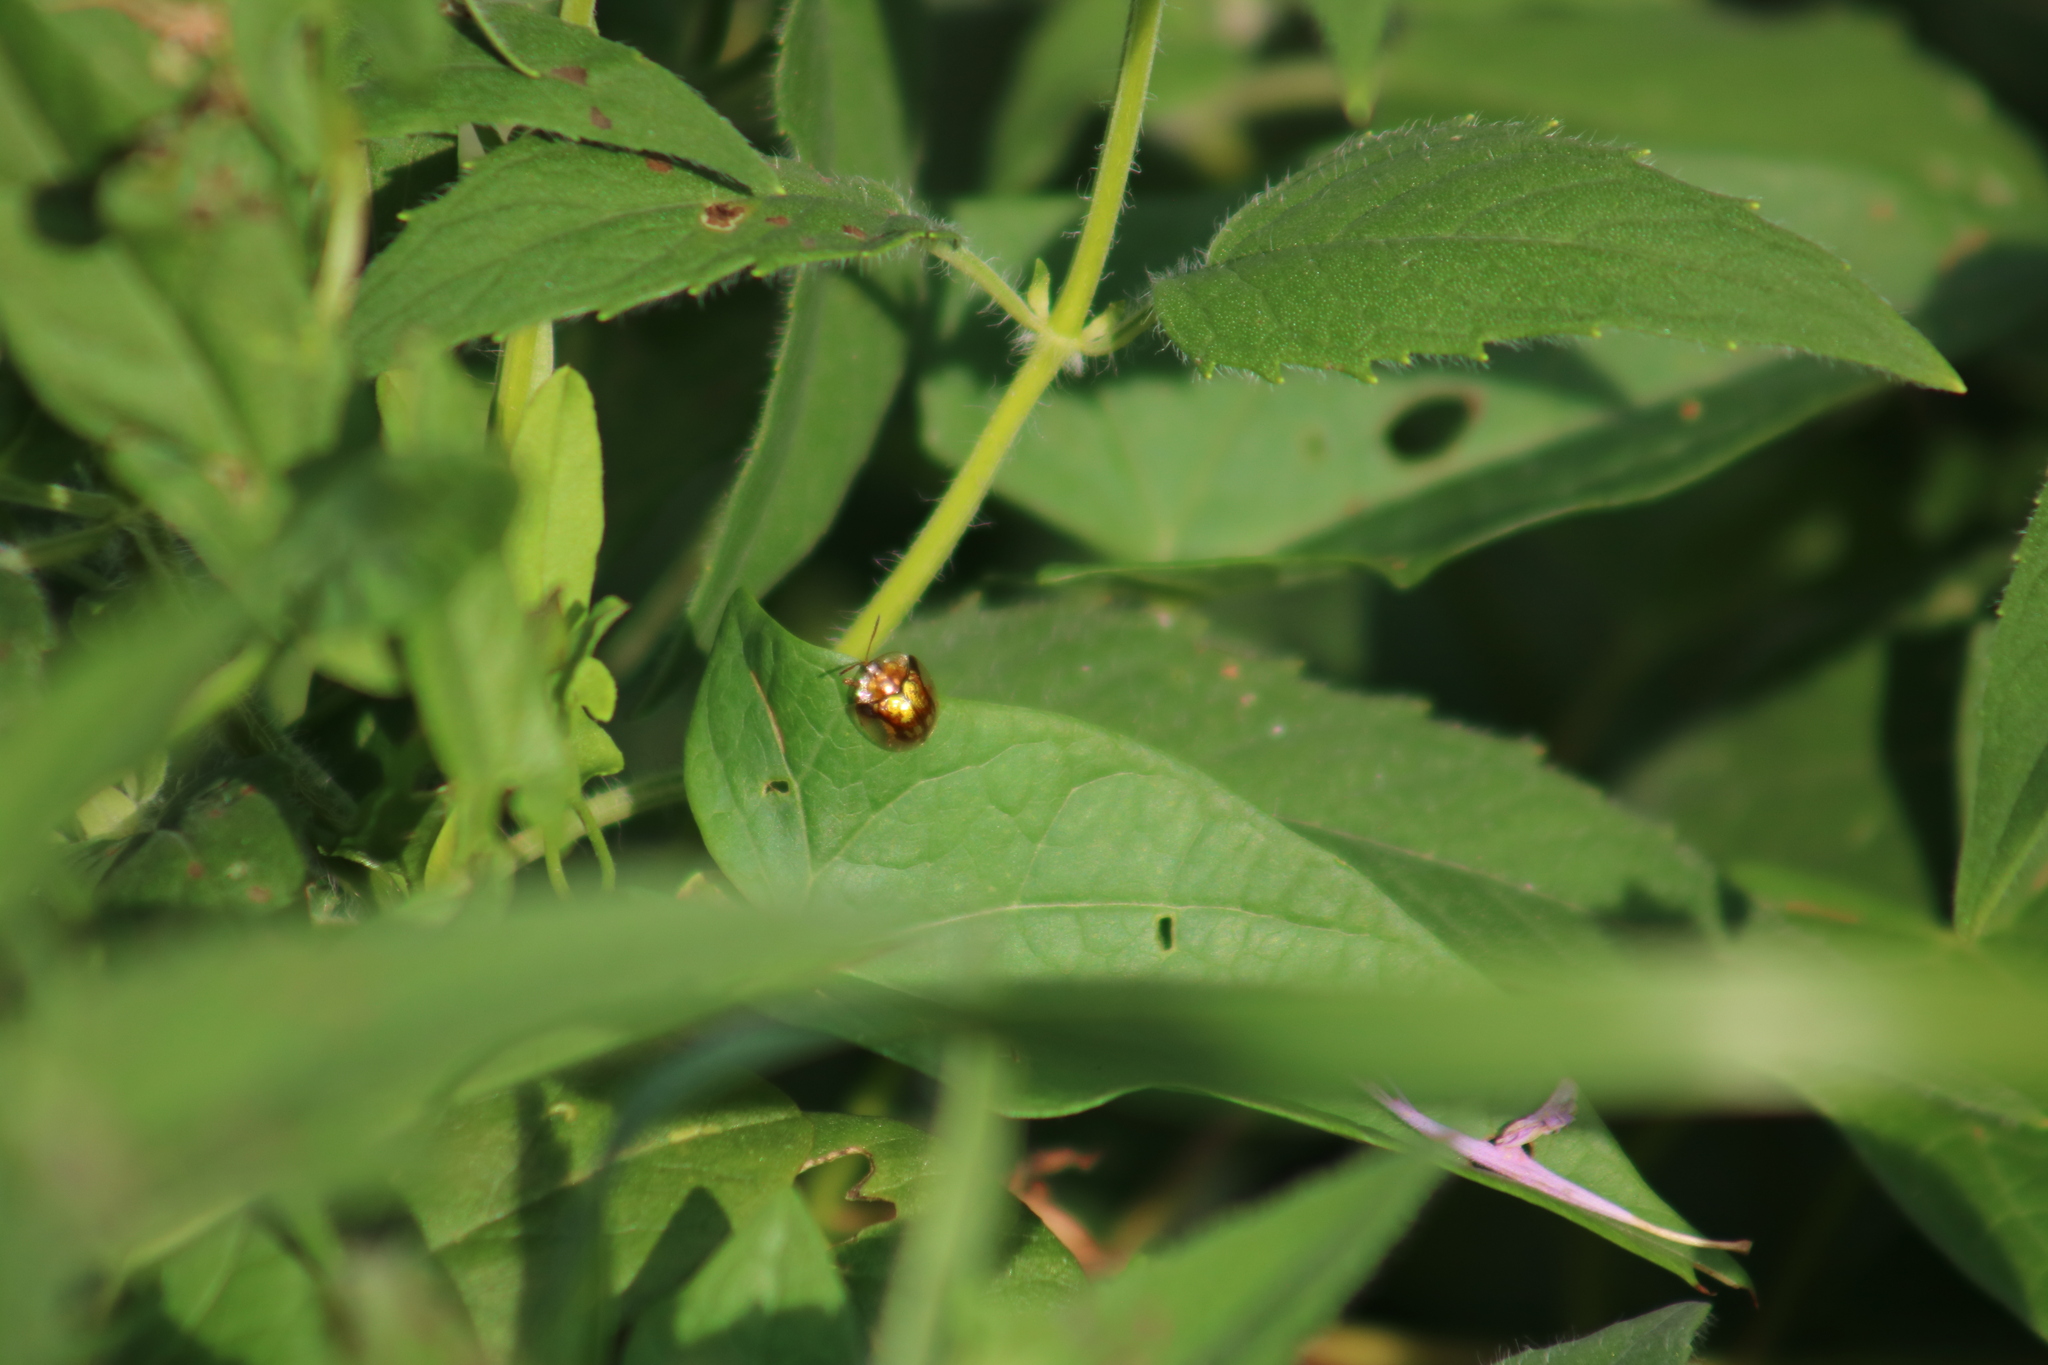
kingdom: Animalia
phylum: Arthropoda
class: Insecta
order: Coleoptera
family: Chrysomelidae
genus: Deloyala
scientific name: Deloyala guttata
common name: Mottled tortoise beetle
